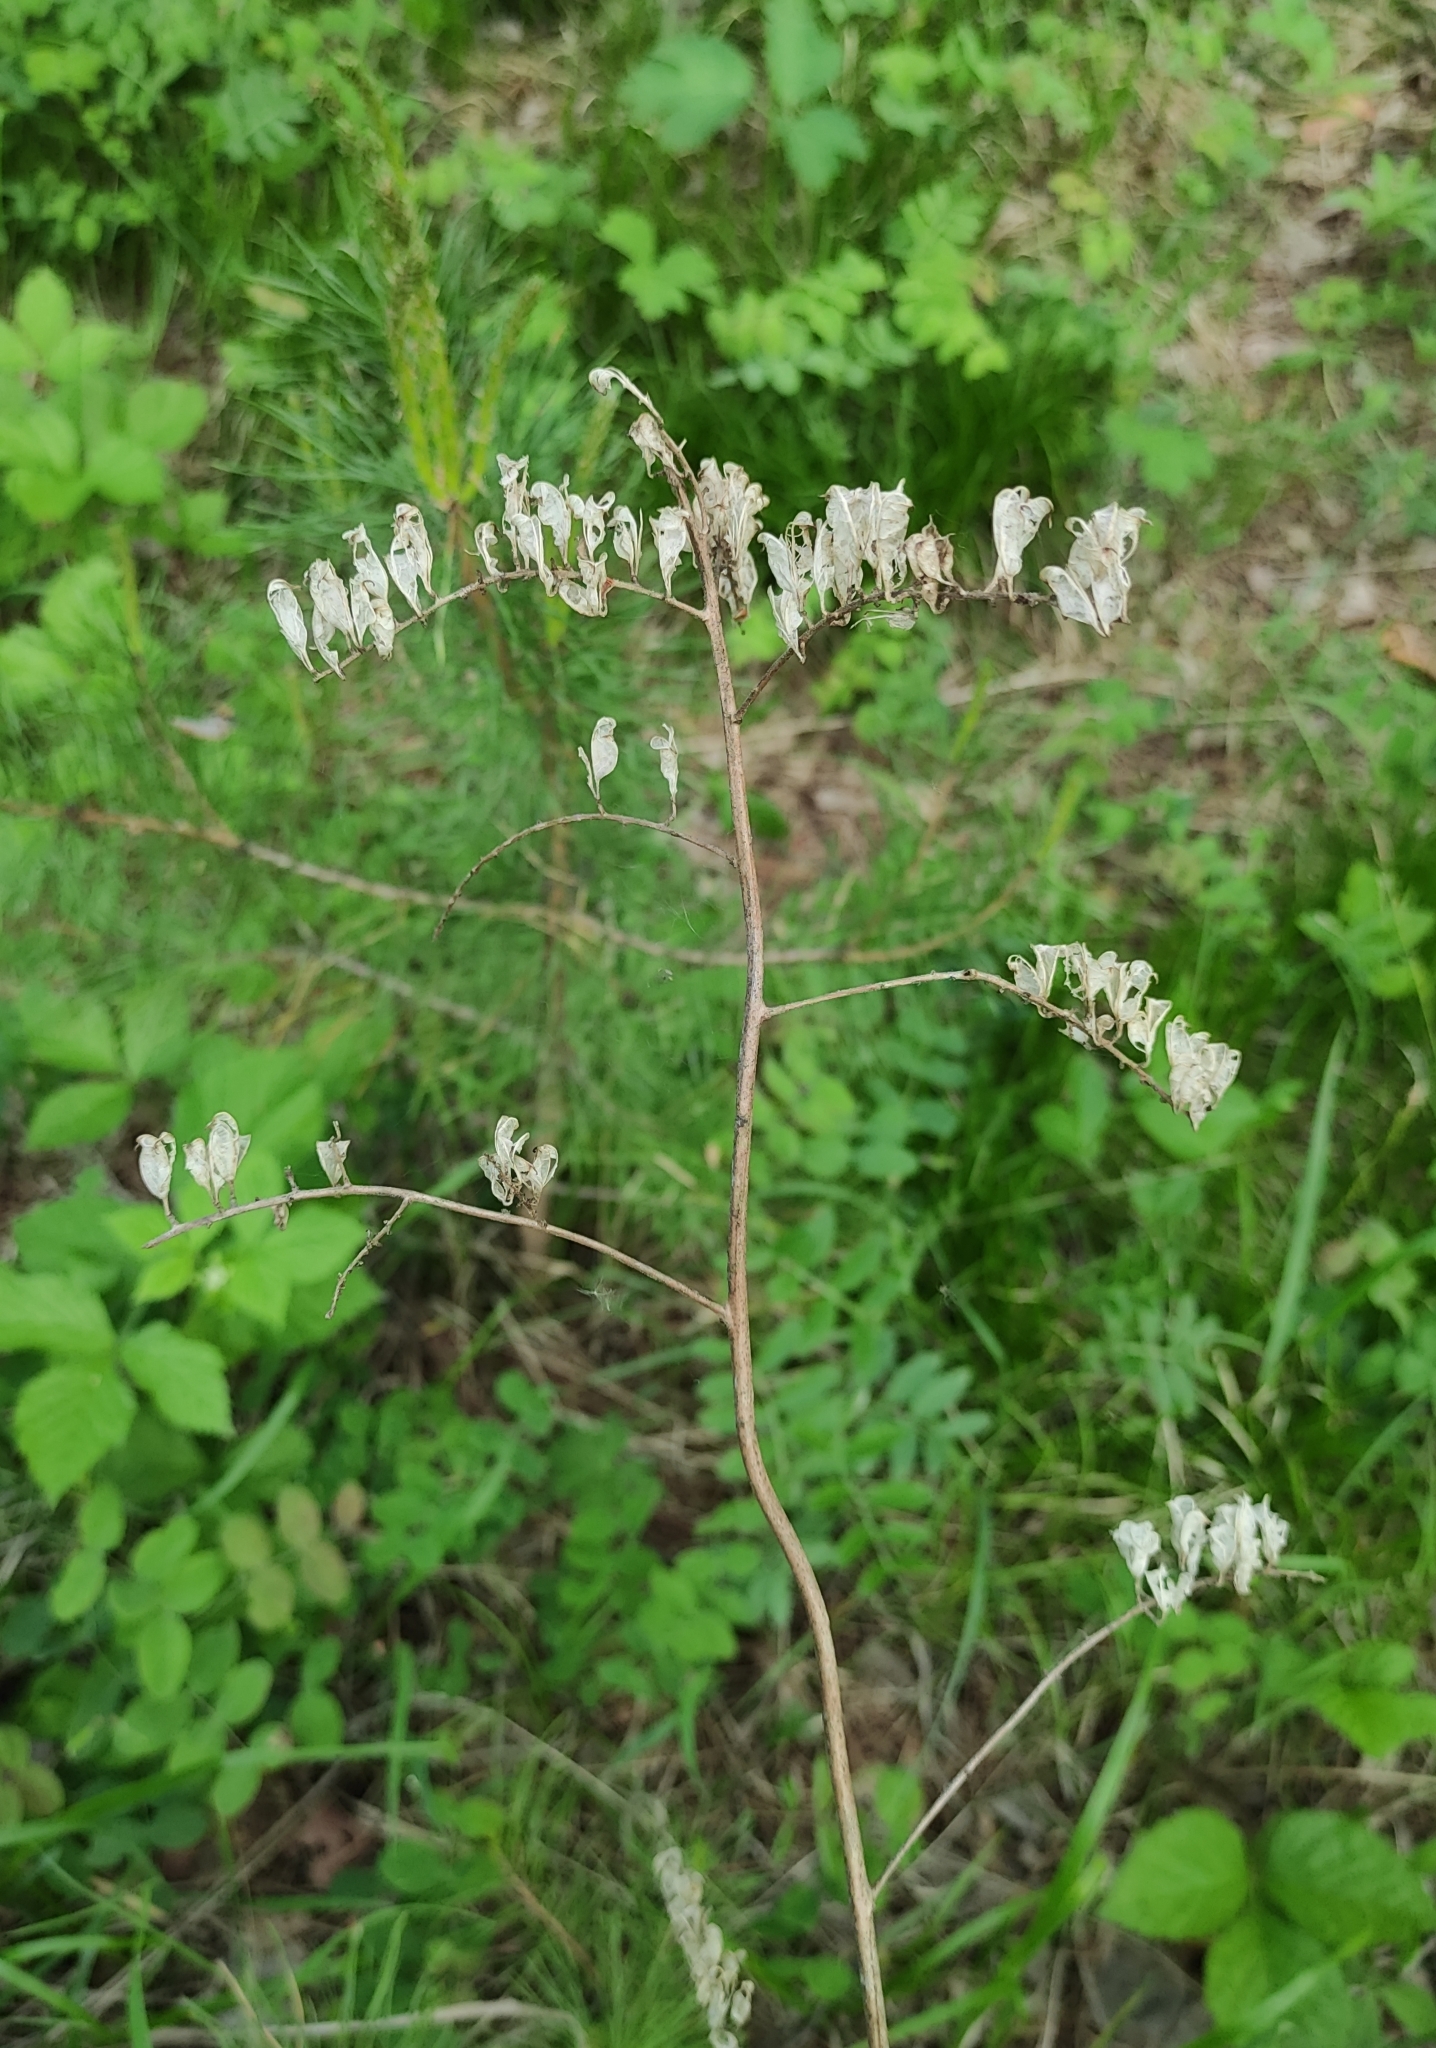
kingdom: Plantae
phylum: Tracheophyta
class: Magnoliopsida
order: Ranunculales
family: Ranunculaceae
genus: Actaea
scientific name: Actaea cimicifuga
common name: Chinese cimicifuga
